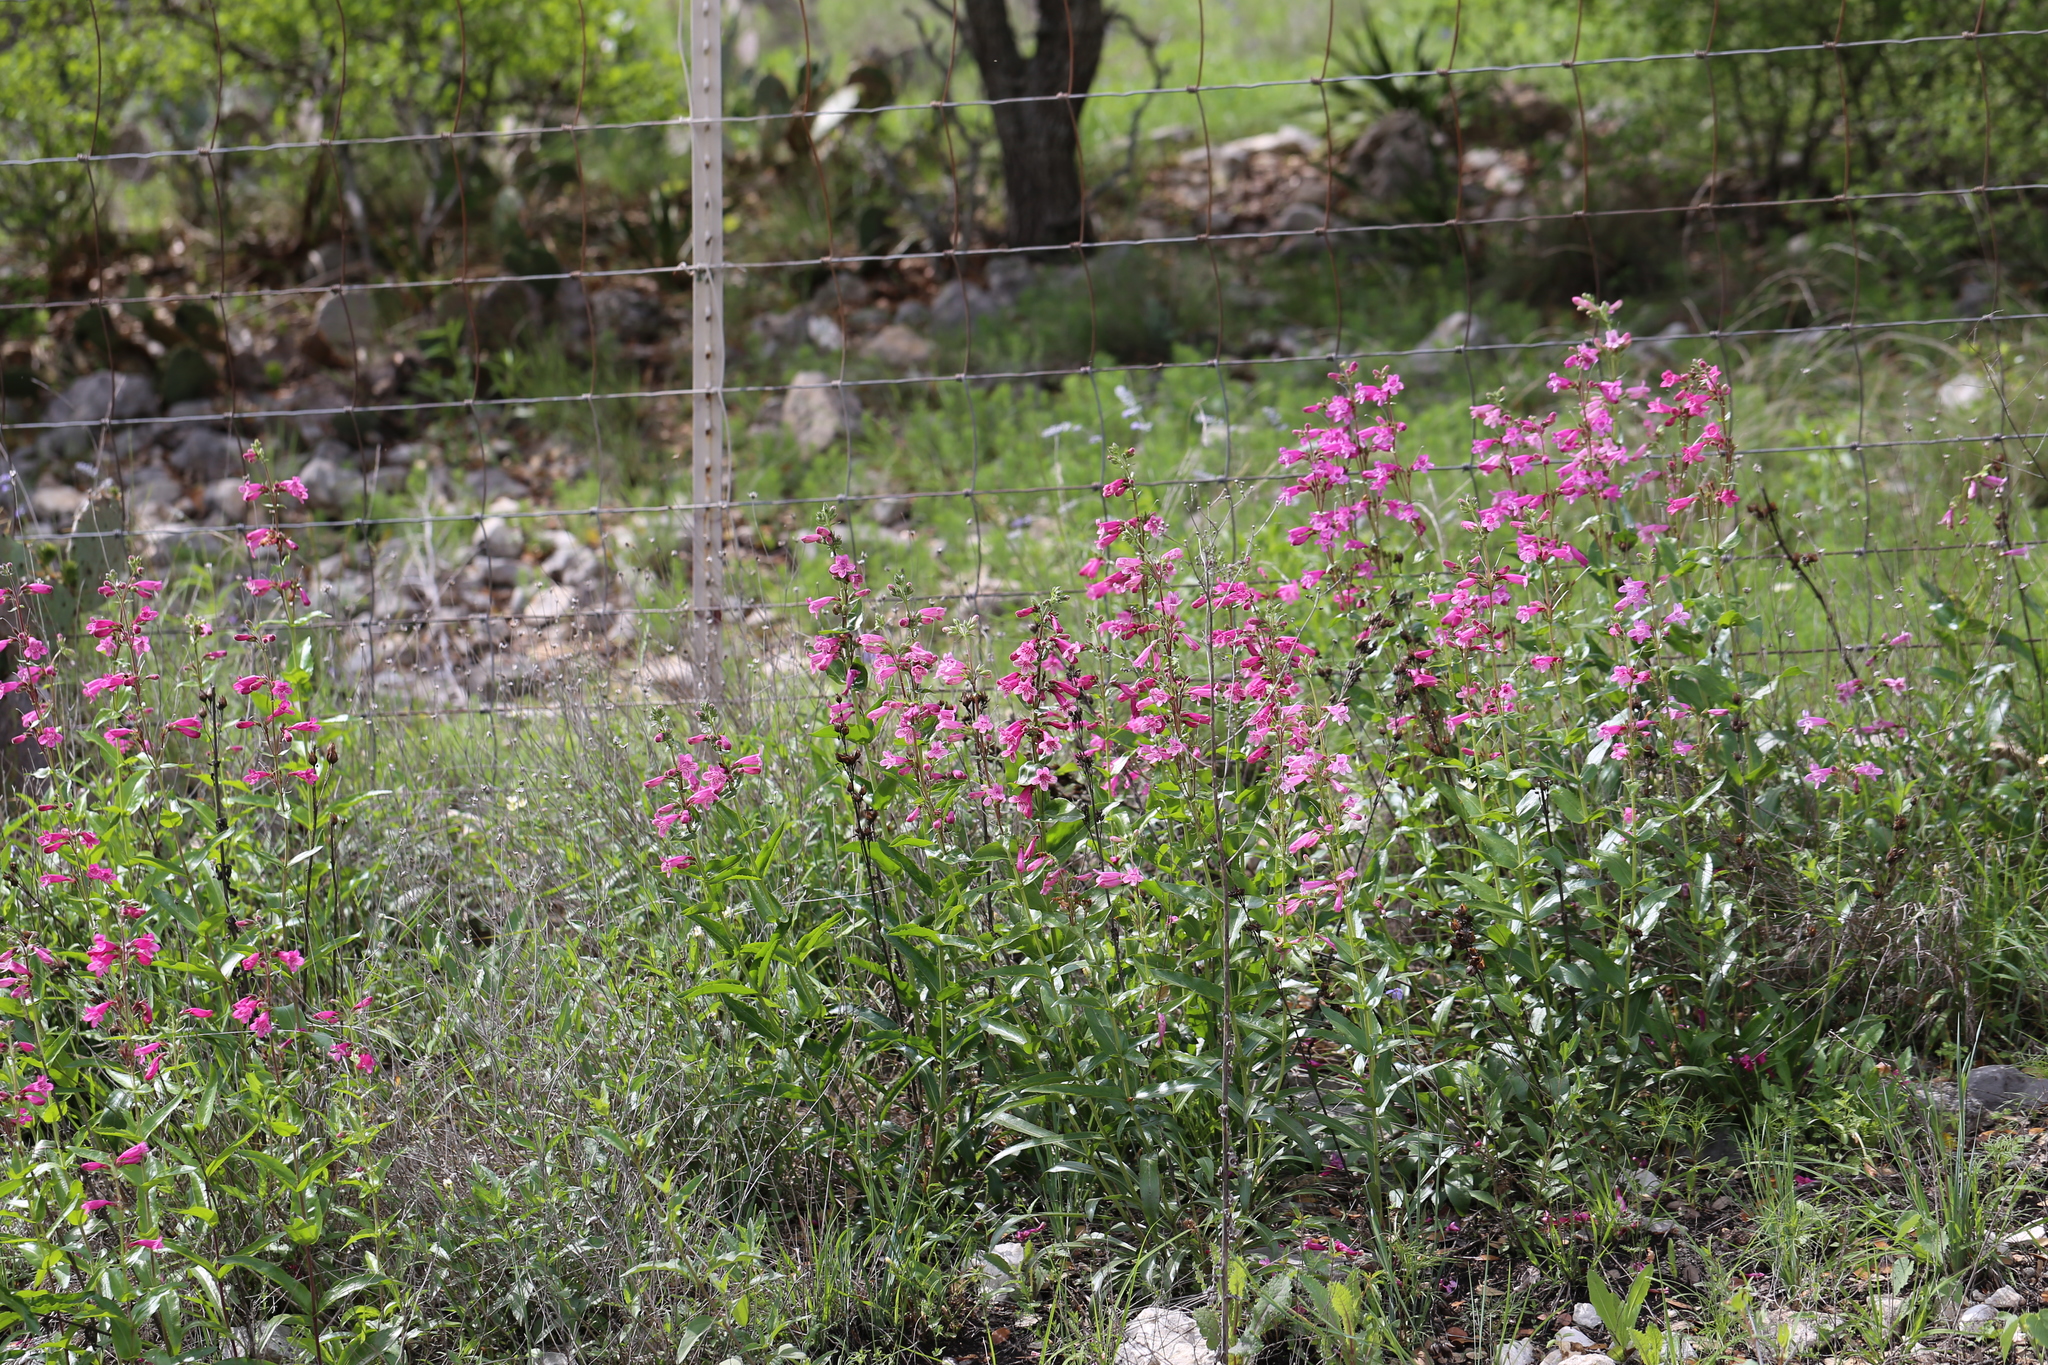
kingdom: Plantae
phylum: Tracheophyta
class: Magnoliopsida
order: Lamiales
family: Plantaginaceae
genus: Penstemon
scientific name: Penstemon triflorus
